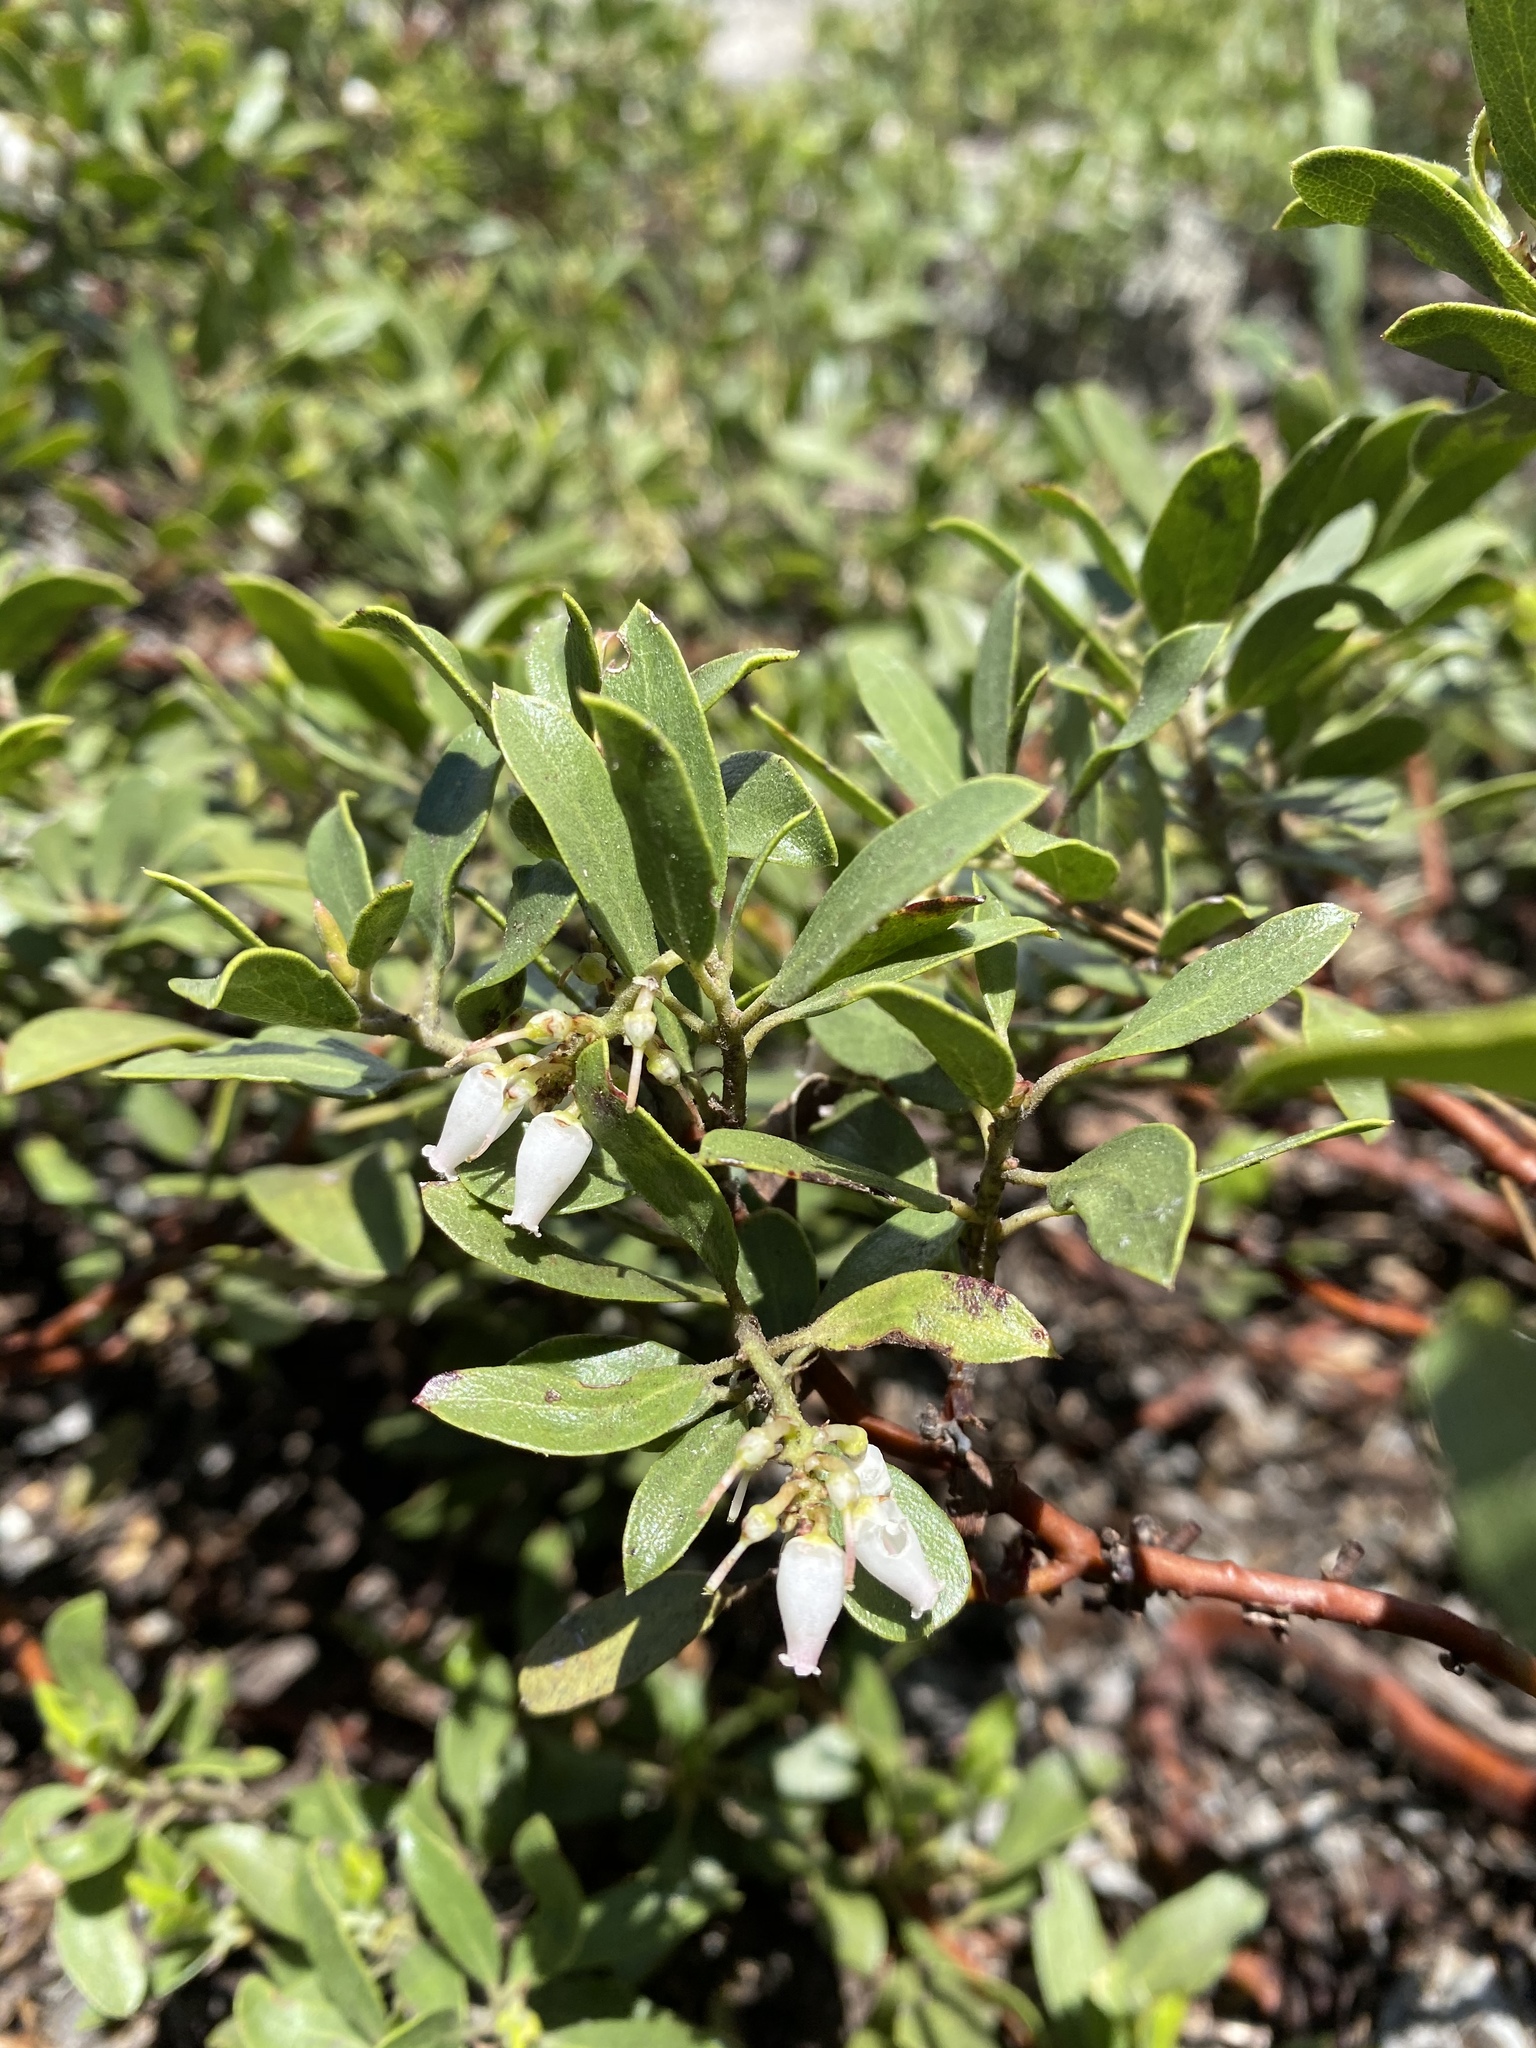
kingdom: Plantae
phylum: Tracheophyta
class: Magnoliopsida
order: Ericales
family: Ericaceae
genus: Arctostaphylos
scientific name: Arctostaphylos nevadensis
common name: Pinemat manzanita
